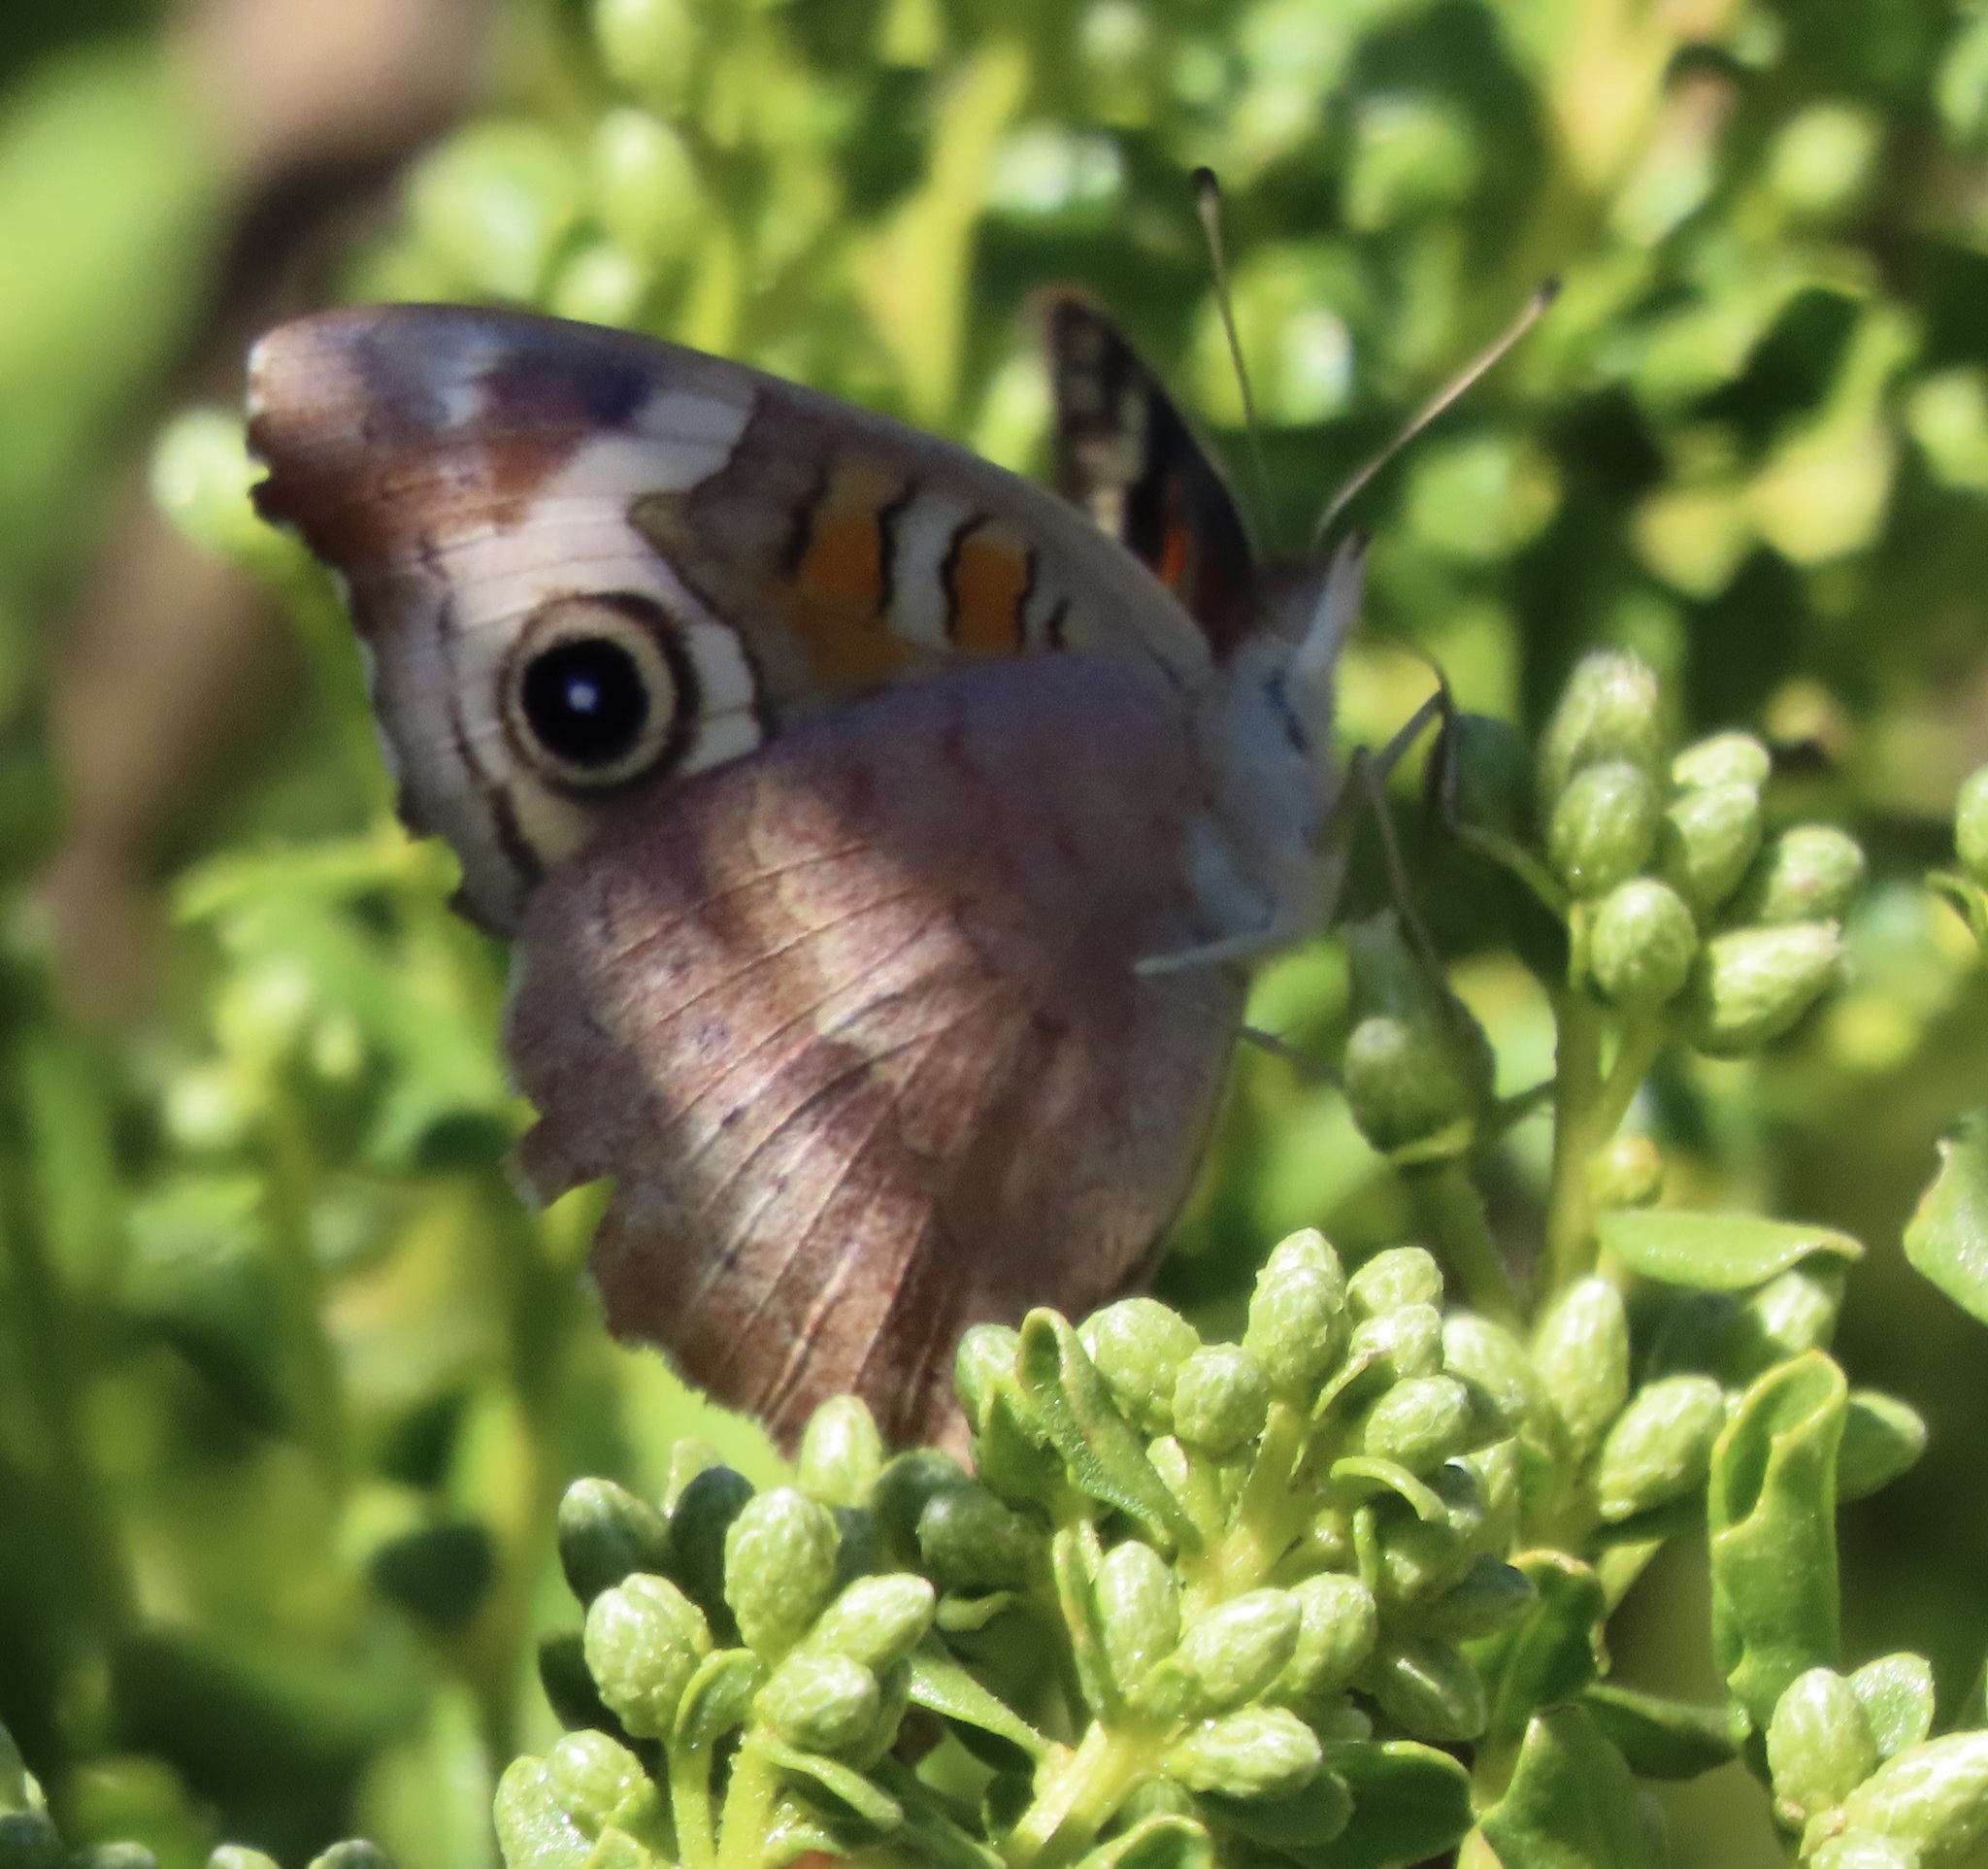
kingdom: Animalia
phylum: Arthropoda
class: Insecta
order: Lepidoptera
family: Nymphalidae
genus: Junonia
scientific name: Junonia grisea
